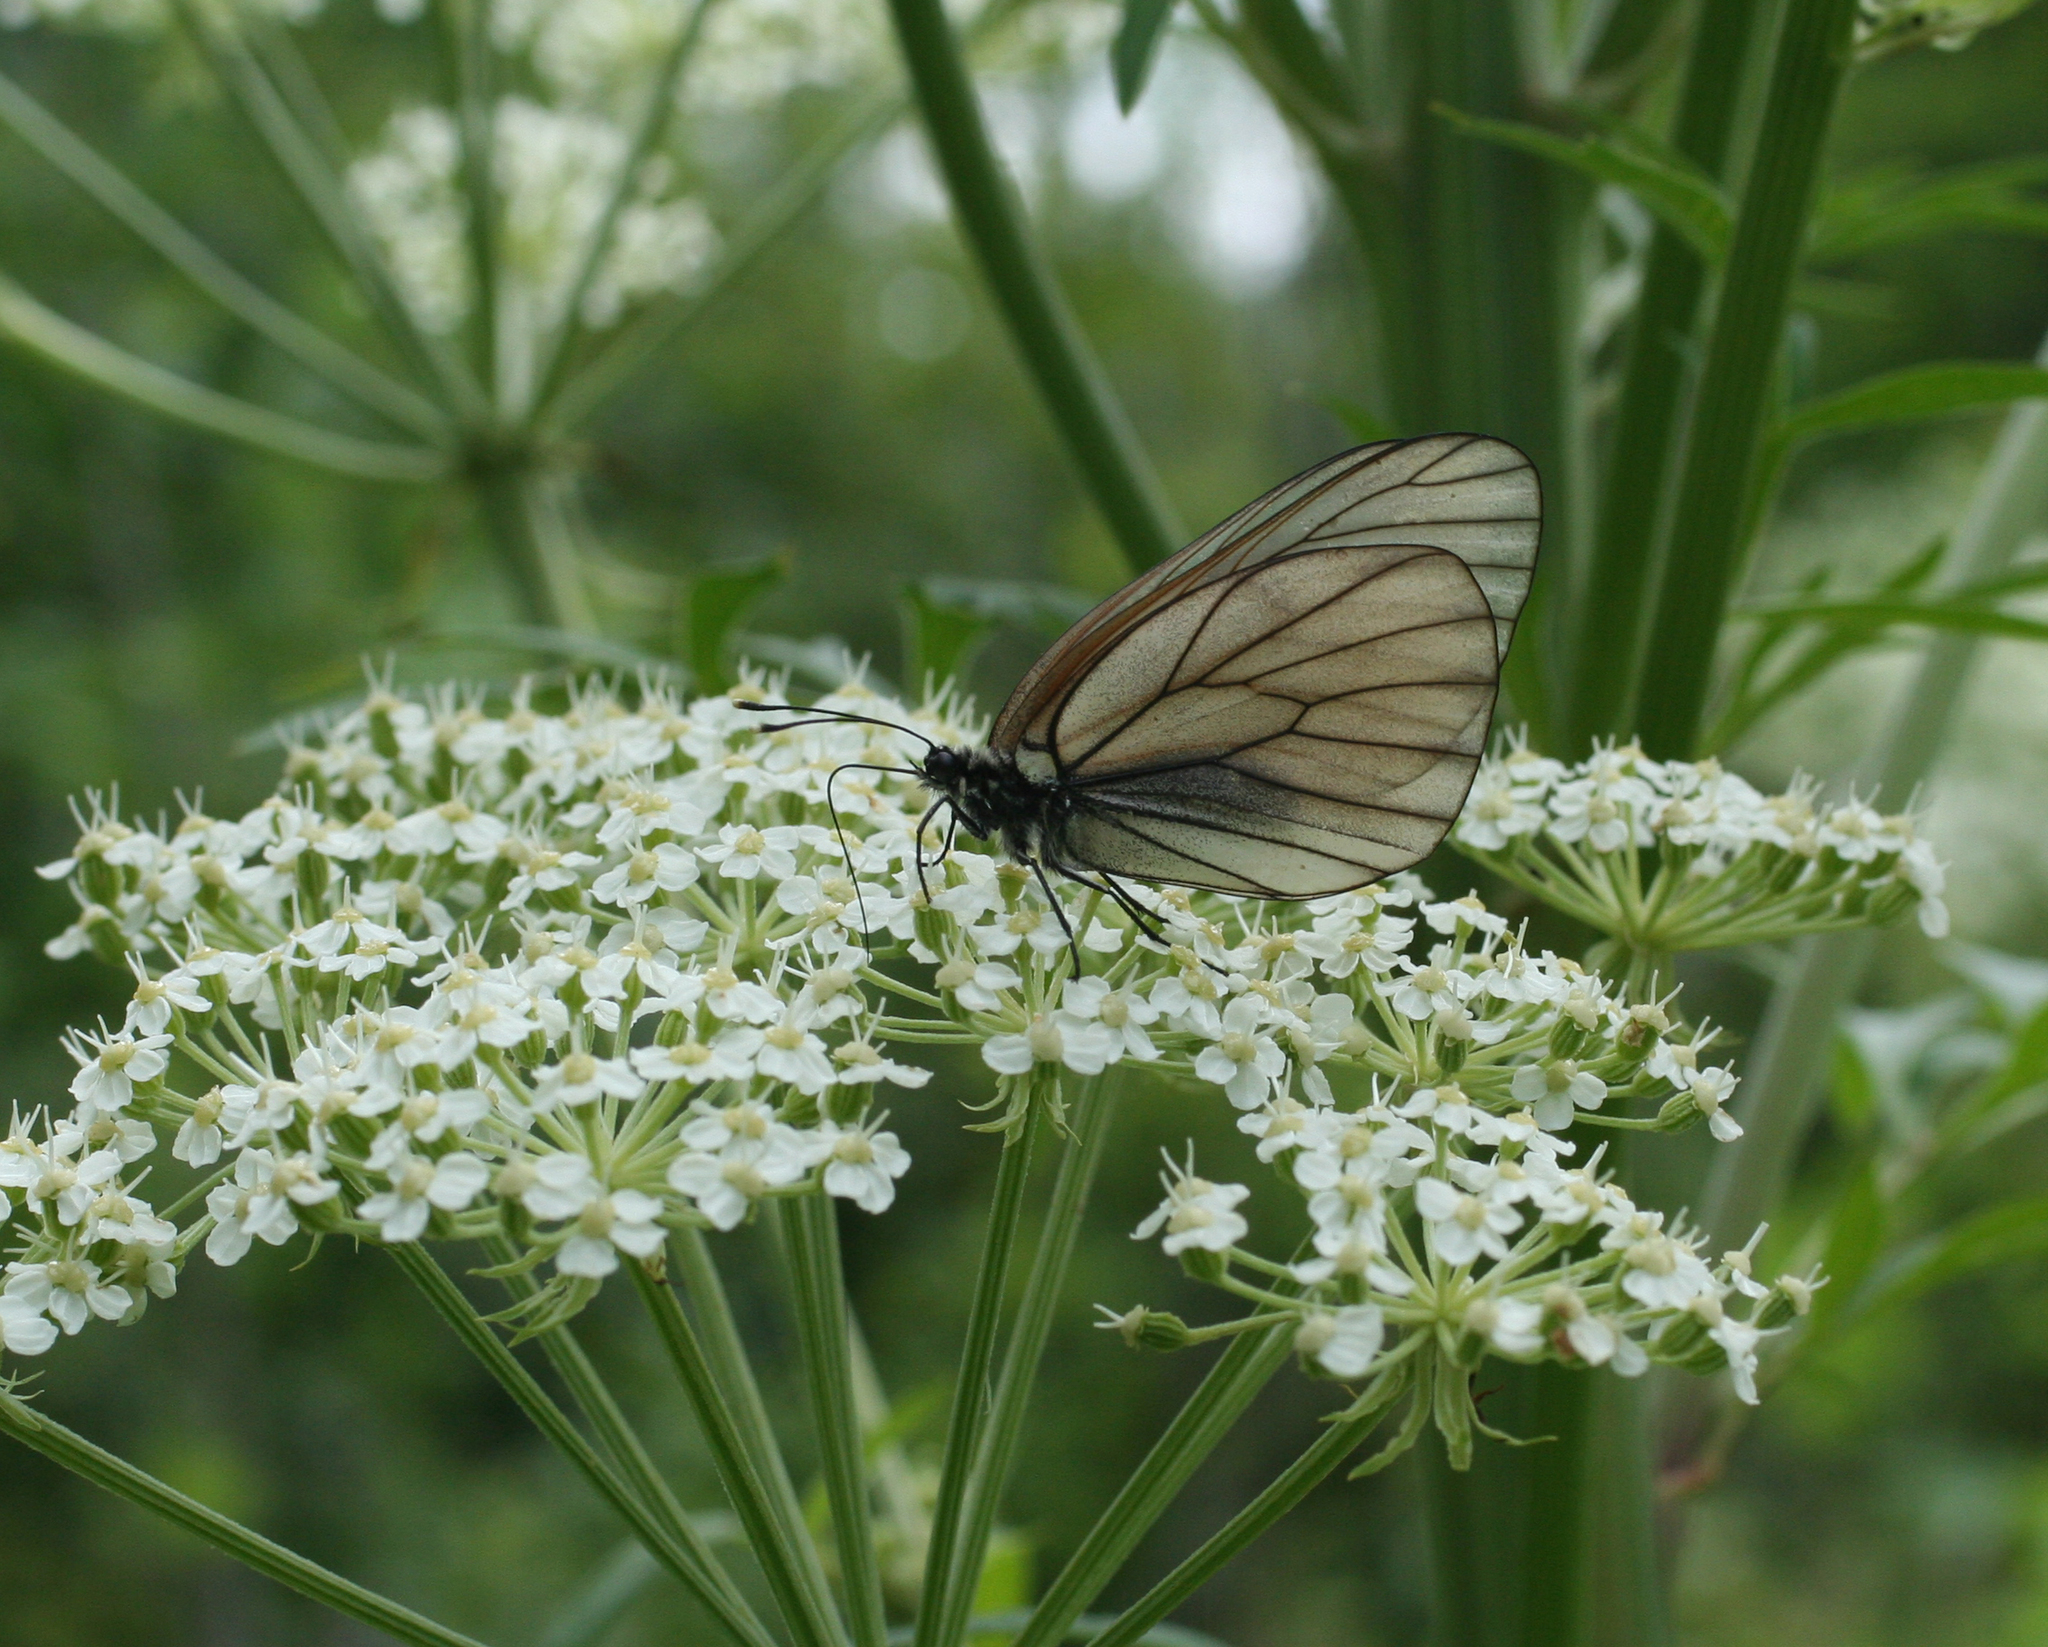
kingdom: Animalia
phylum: Arthropoda
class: Insecta
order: Lepidoptera
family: Pieridae
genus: Aporia
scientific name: Aporia crataegi
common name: Black-veined white
